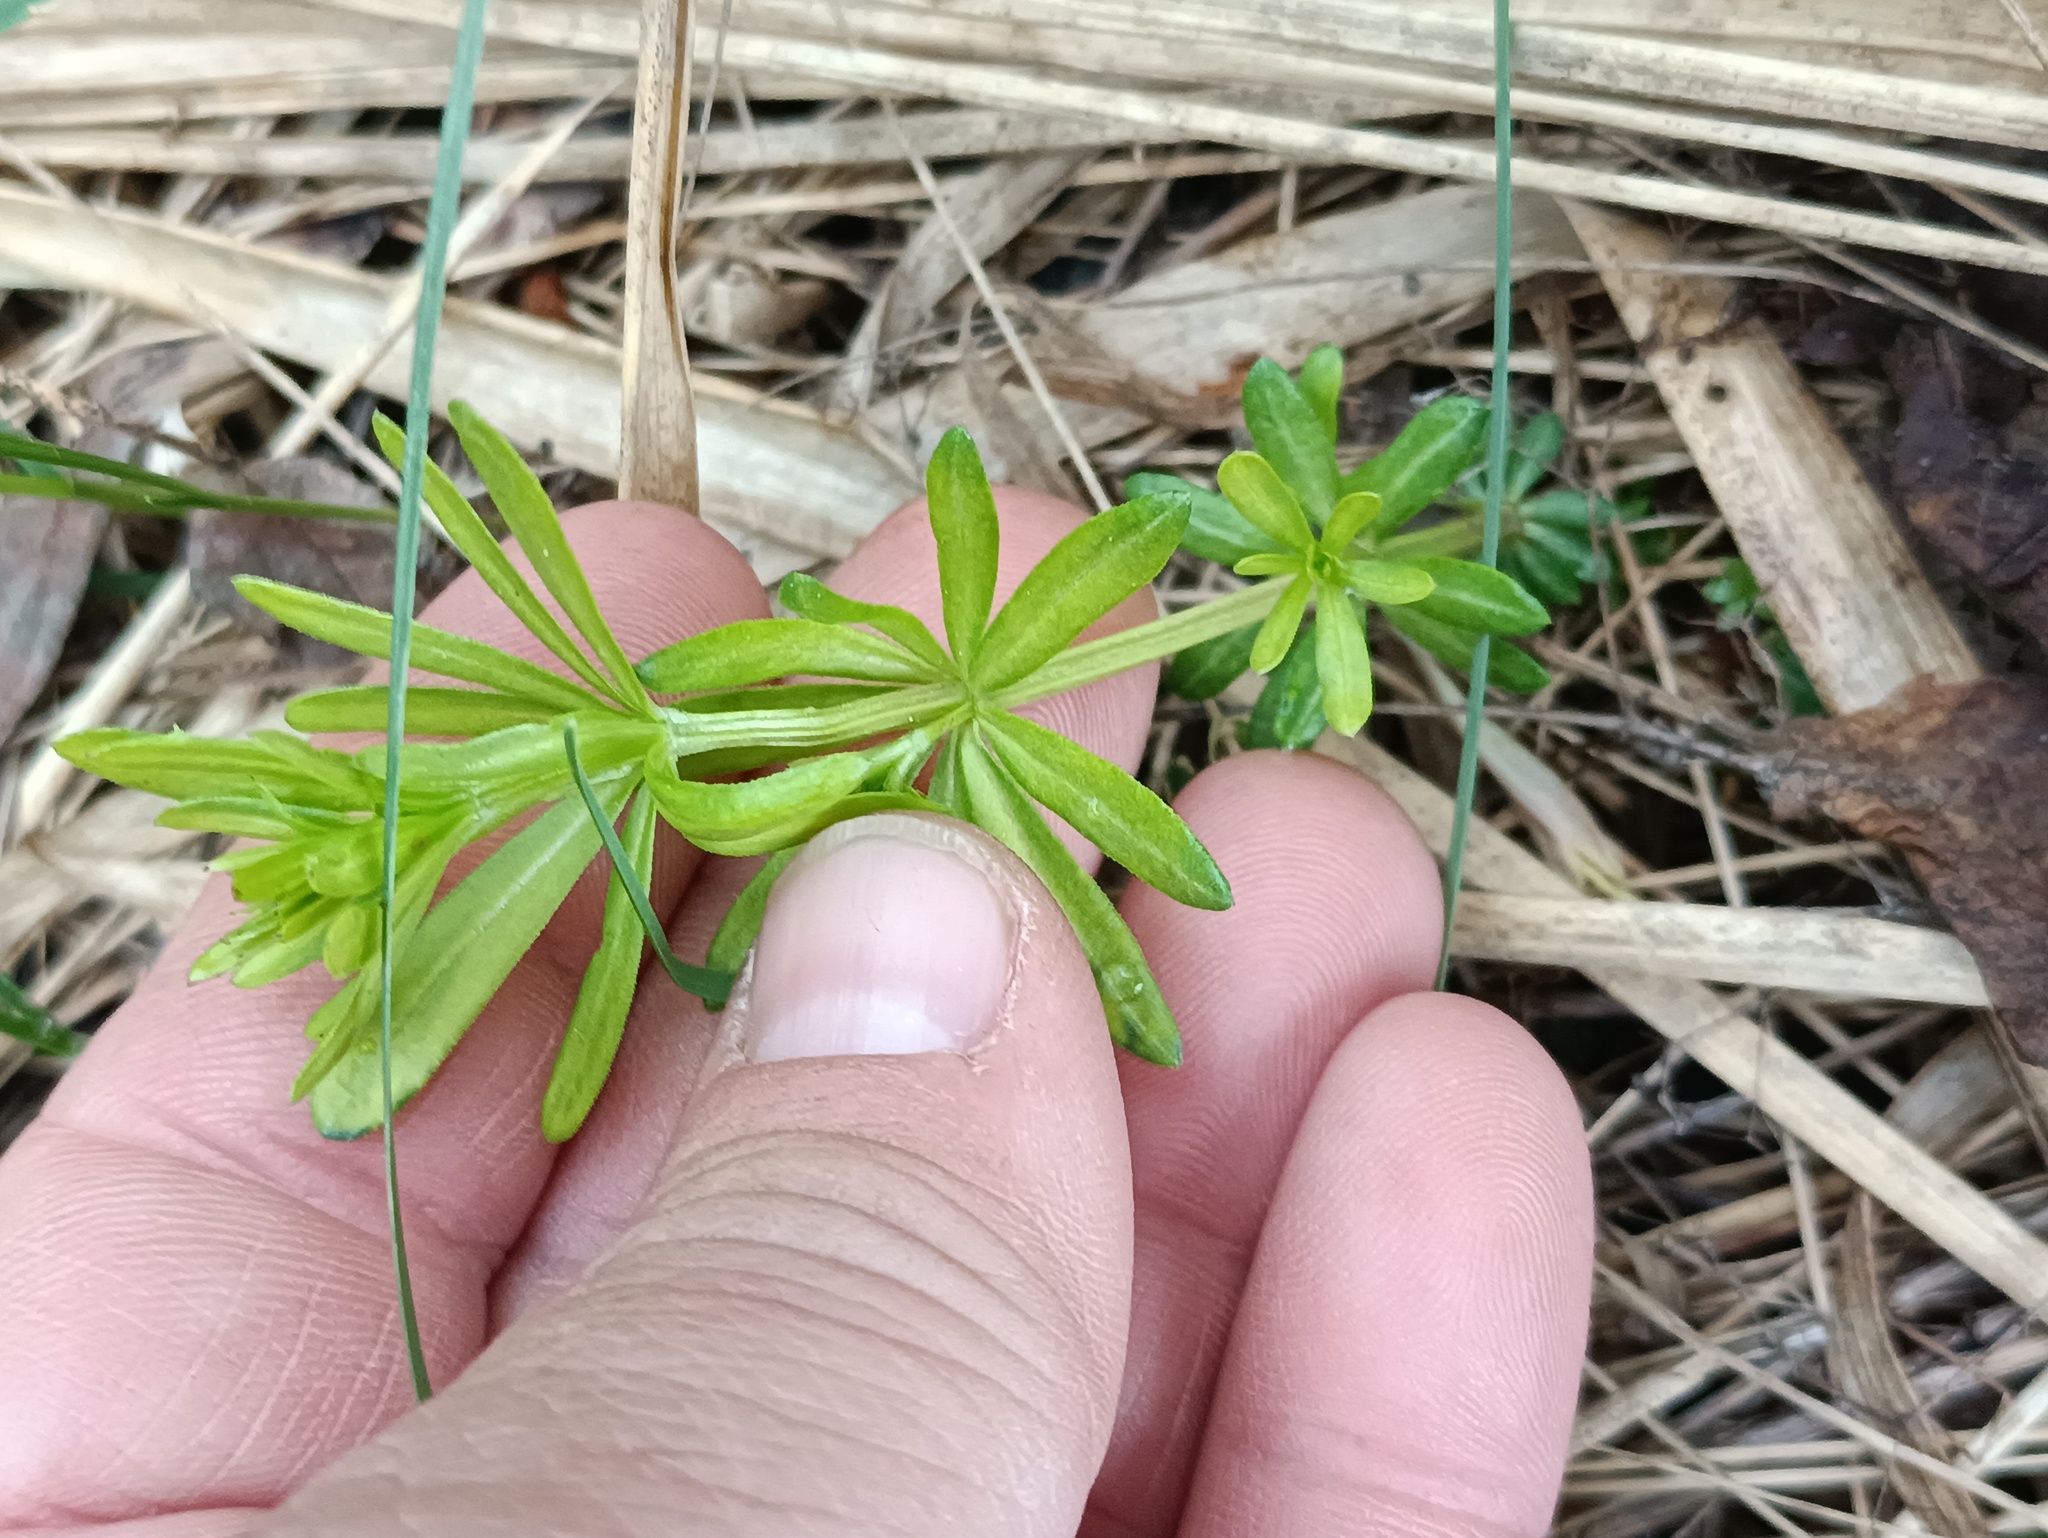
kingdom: Plantae
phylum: Tracheophyta
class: Magnoliopsida
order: Gentianales
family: Rubiaceae
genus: Galium
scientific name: Galium mollugo
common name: Hedge bedstraw
